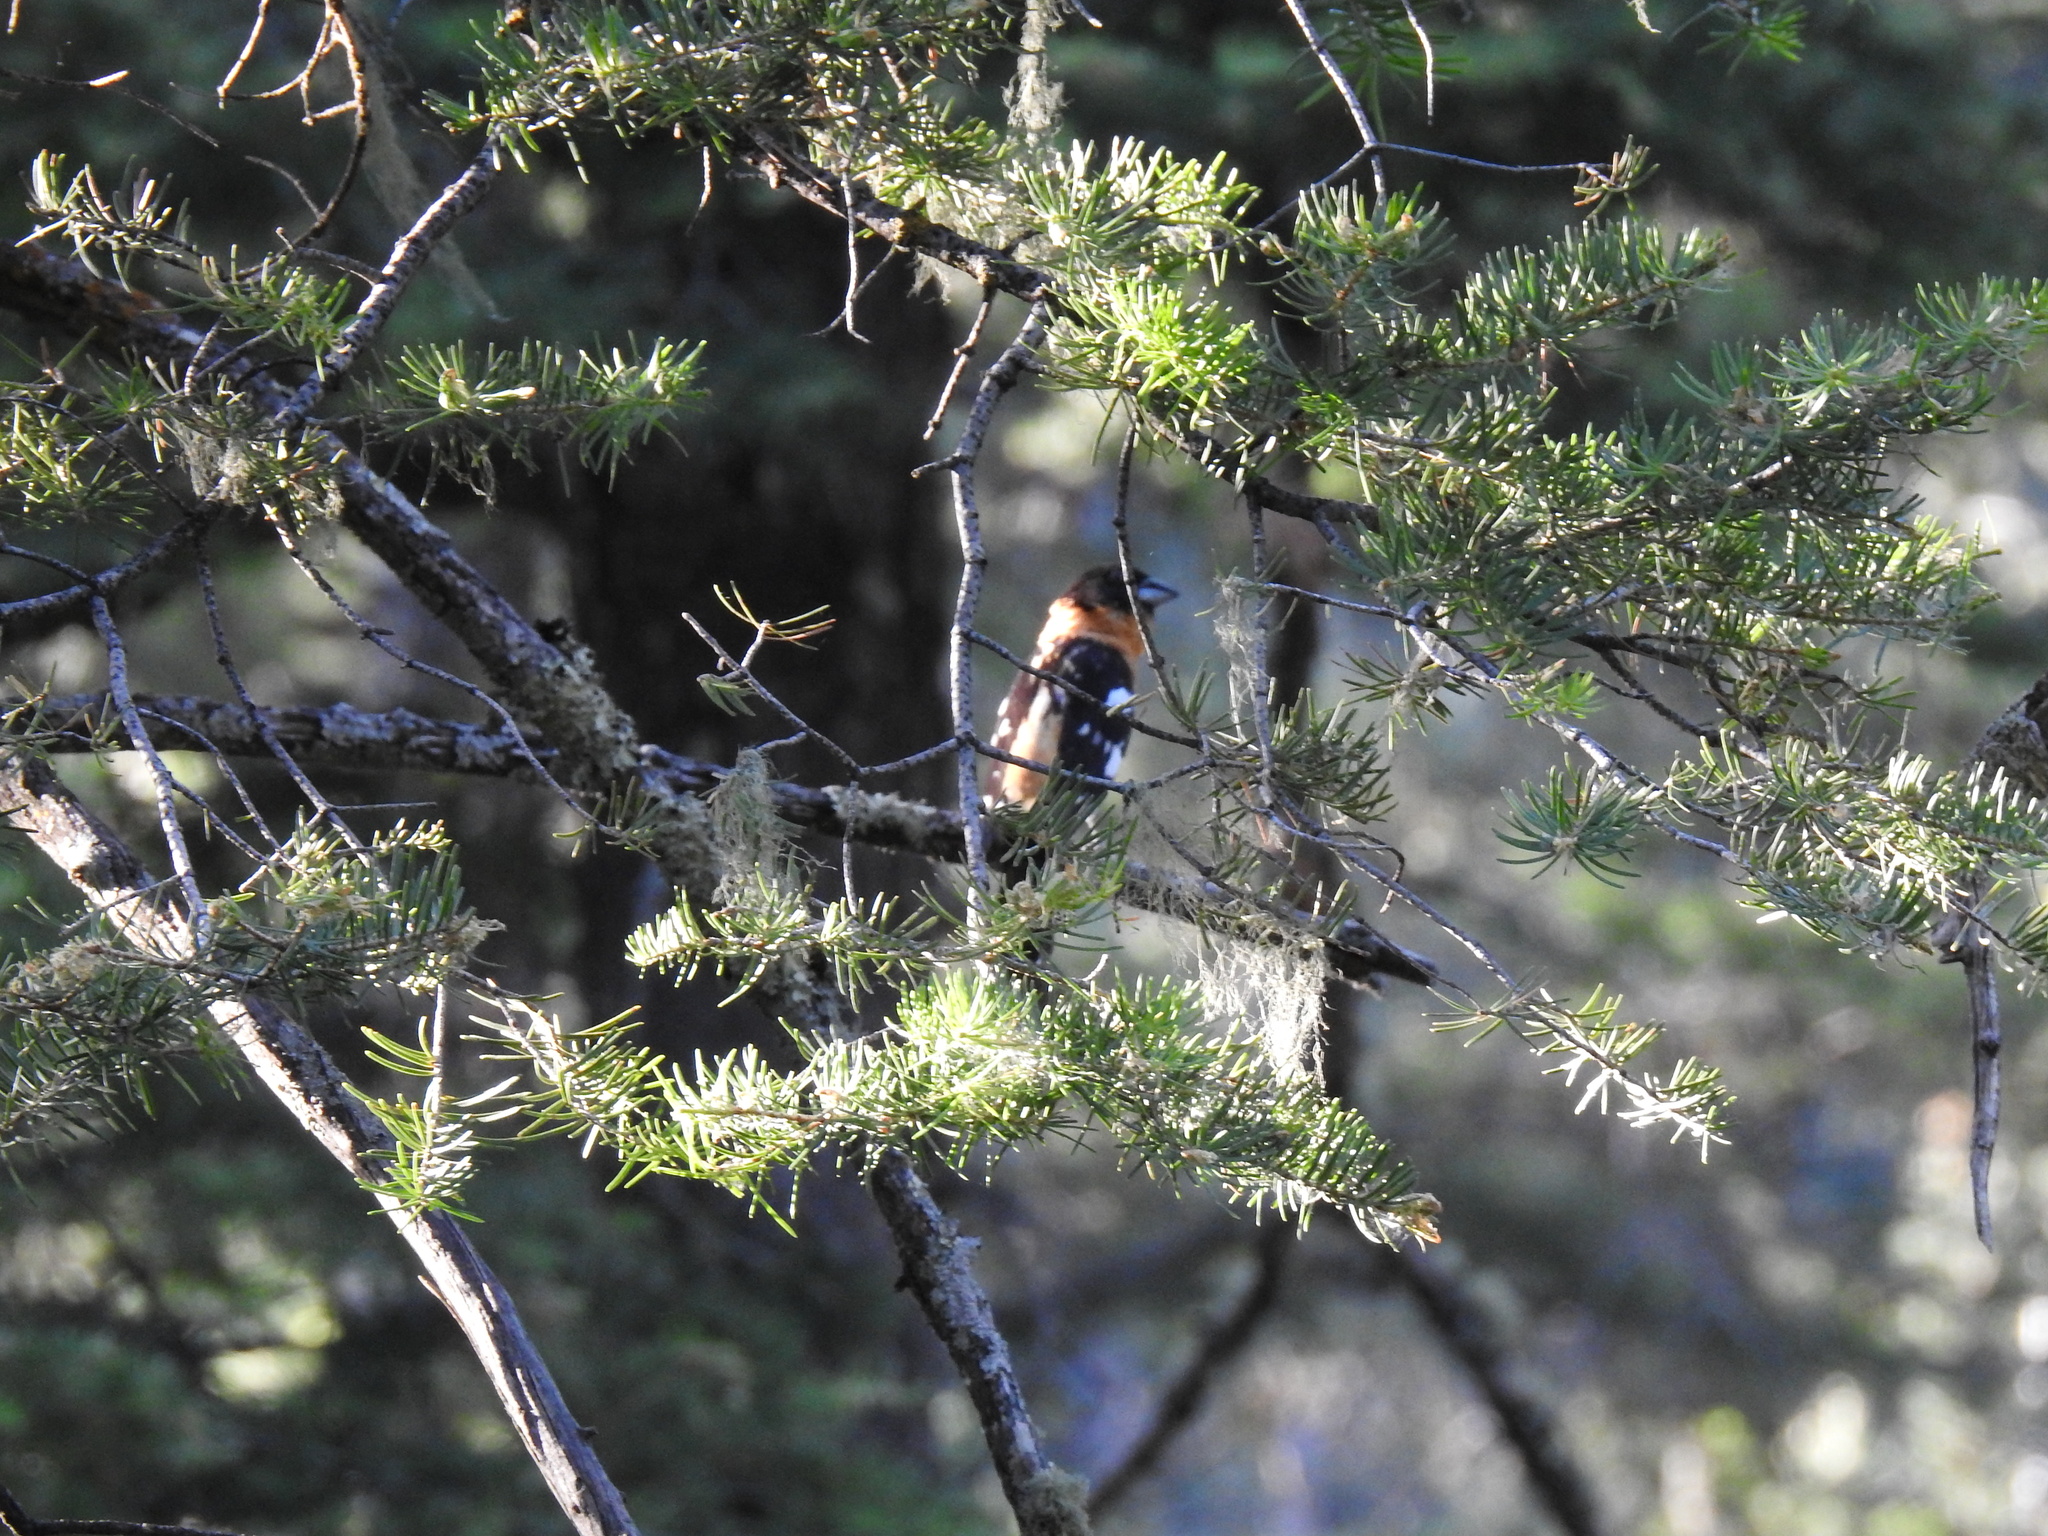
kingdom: Animalia
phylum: Chordata
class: Aves
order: Passeriformes
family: Cardinalidae
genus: Pheucticus
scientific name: Pheucticus melanocephalus
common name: Black-headed grosbeak
